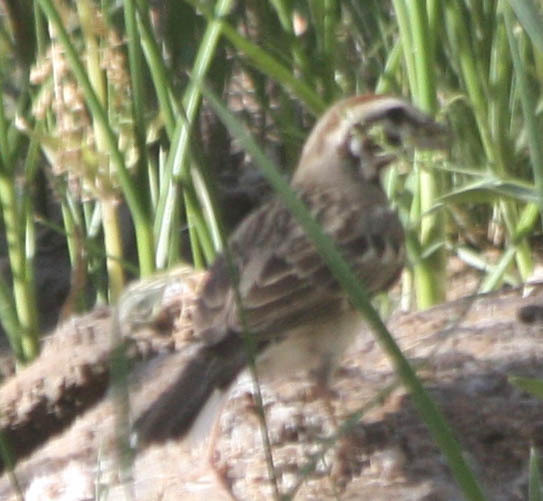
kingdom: Animalia
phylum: Chordata
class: Aves
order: Passeriformes
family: Passerellidae
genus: Chondestes
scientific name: Chondestes grammacus
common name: Lark sparrow
